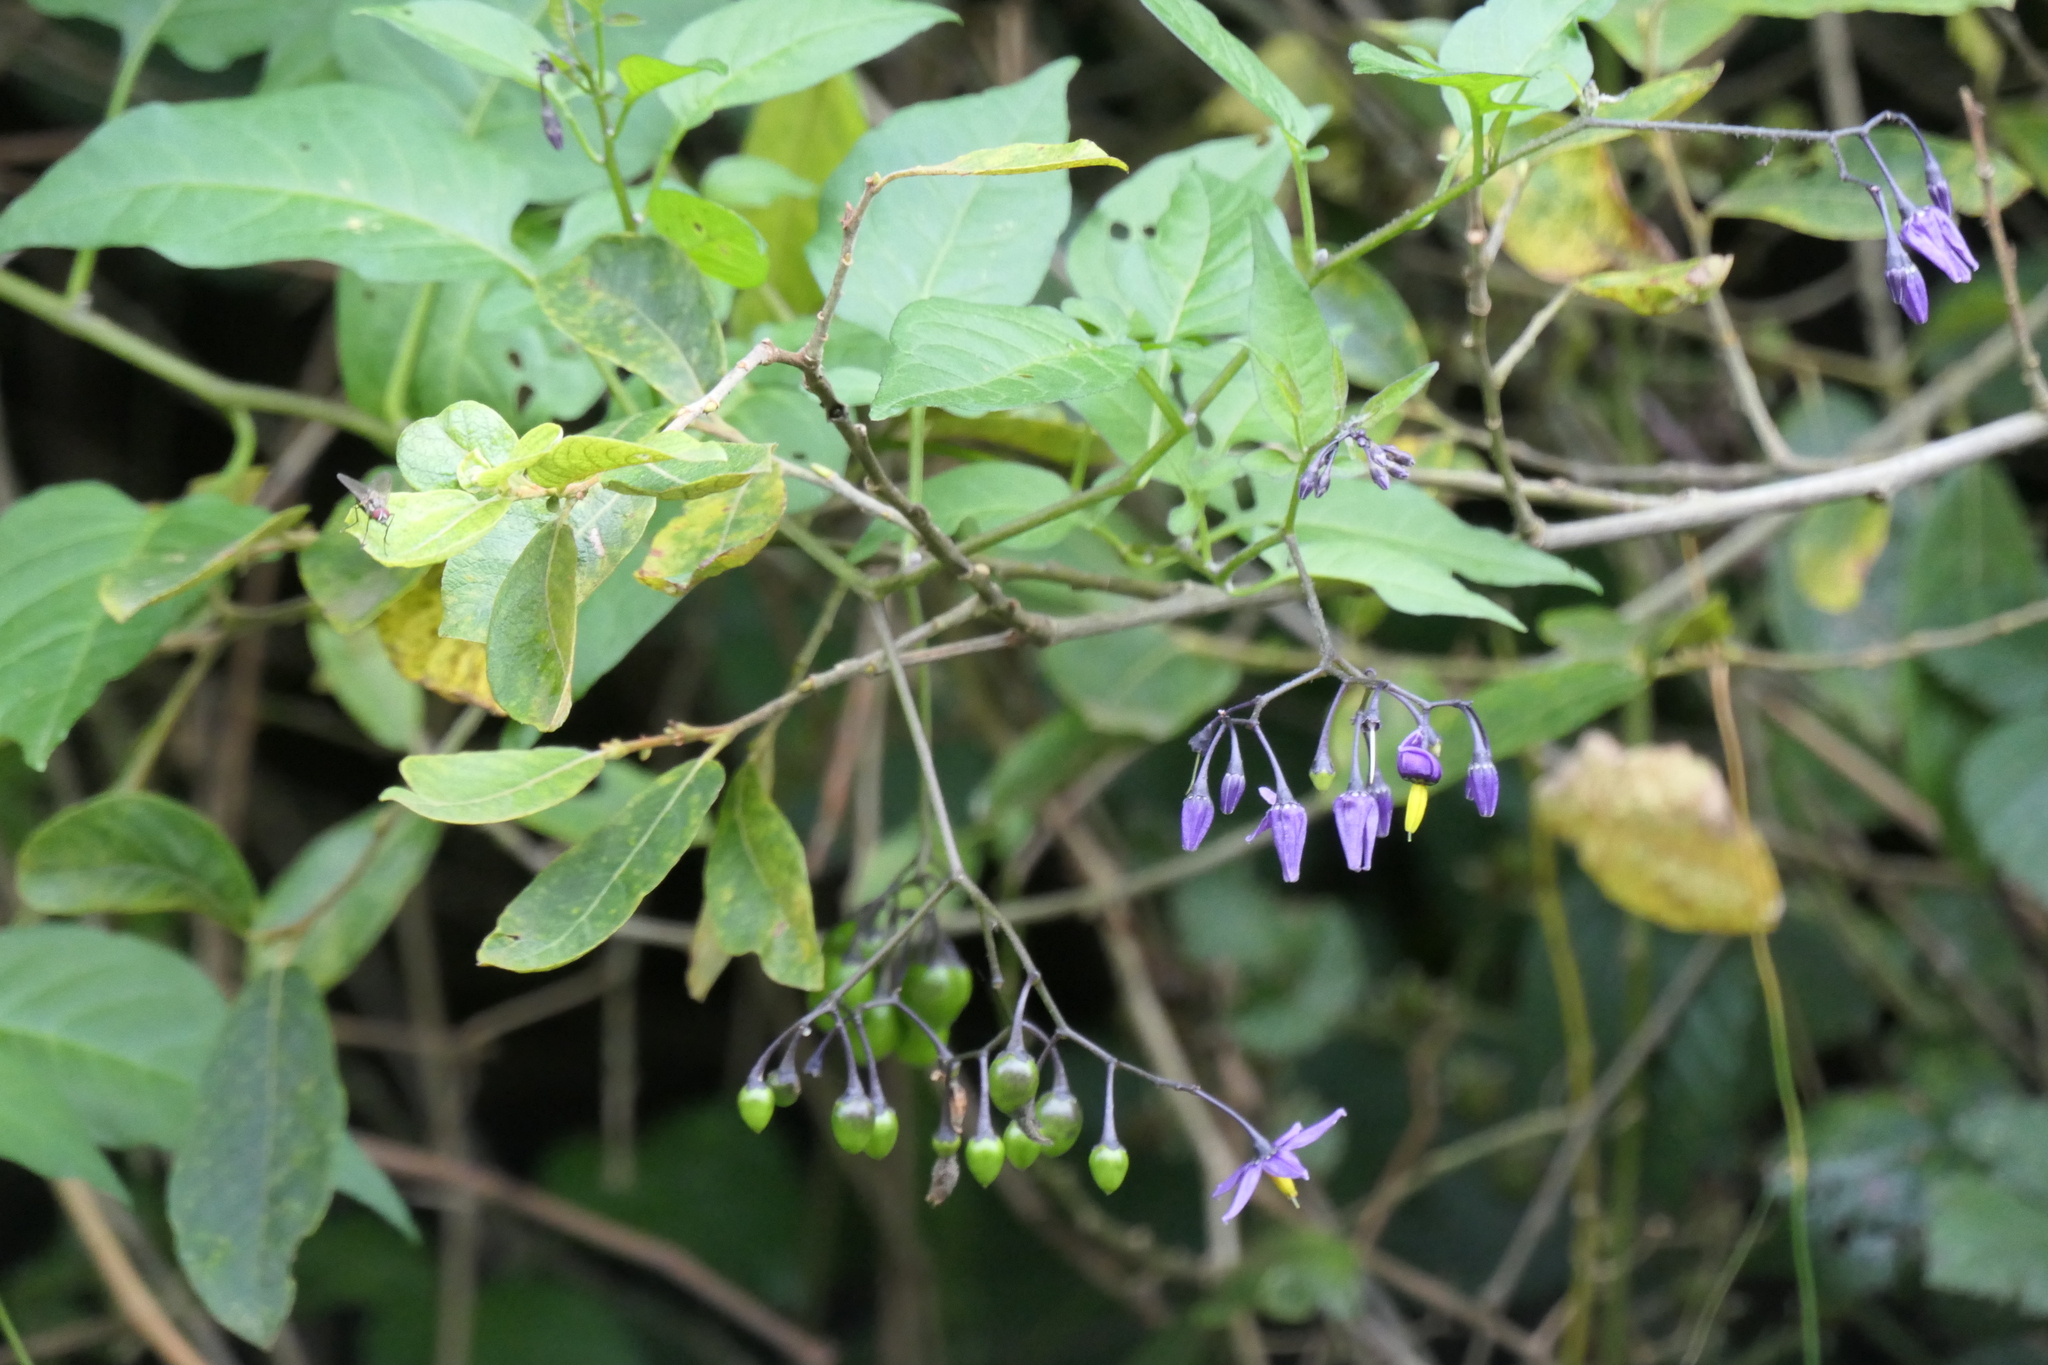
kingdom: Plantae
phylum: Tracheophyta
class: Magnoliopsida
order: Solanales
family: Solanaceae
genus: Solanum
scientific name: Solanum dulcamara
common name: Climbing nightshade
